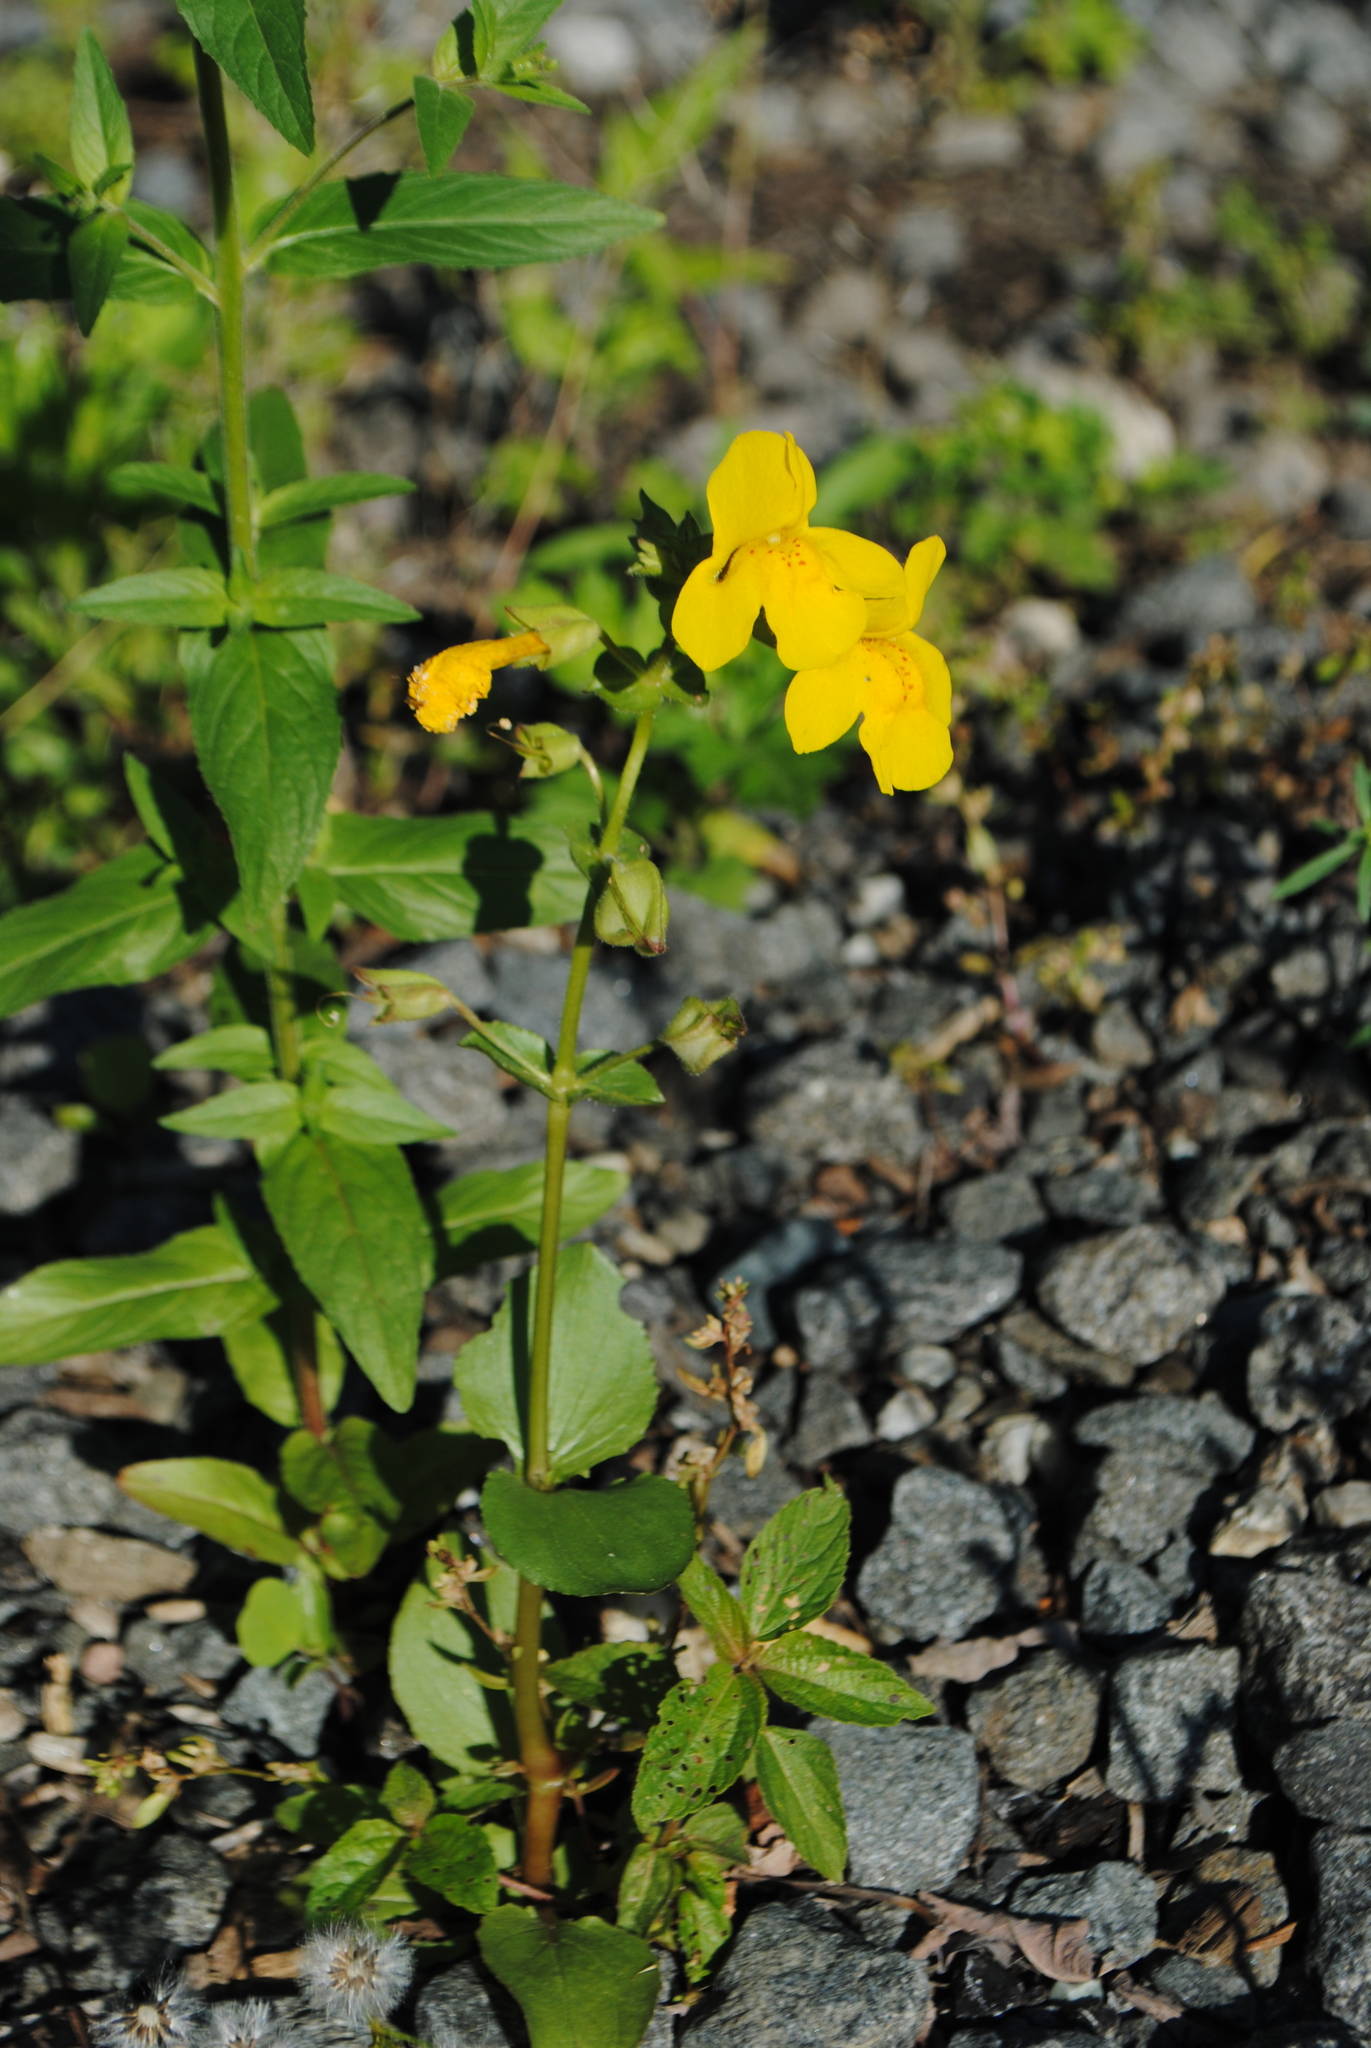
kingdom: Plantae
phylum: Tracheophyta
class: Magnoliopsida
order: Lamiales
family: Phrymaceae
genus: Erythranthe
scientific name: Erythranthe guttata
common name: Monkeyflower
